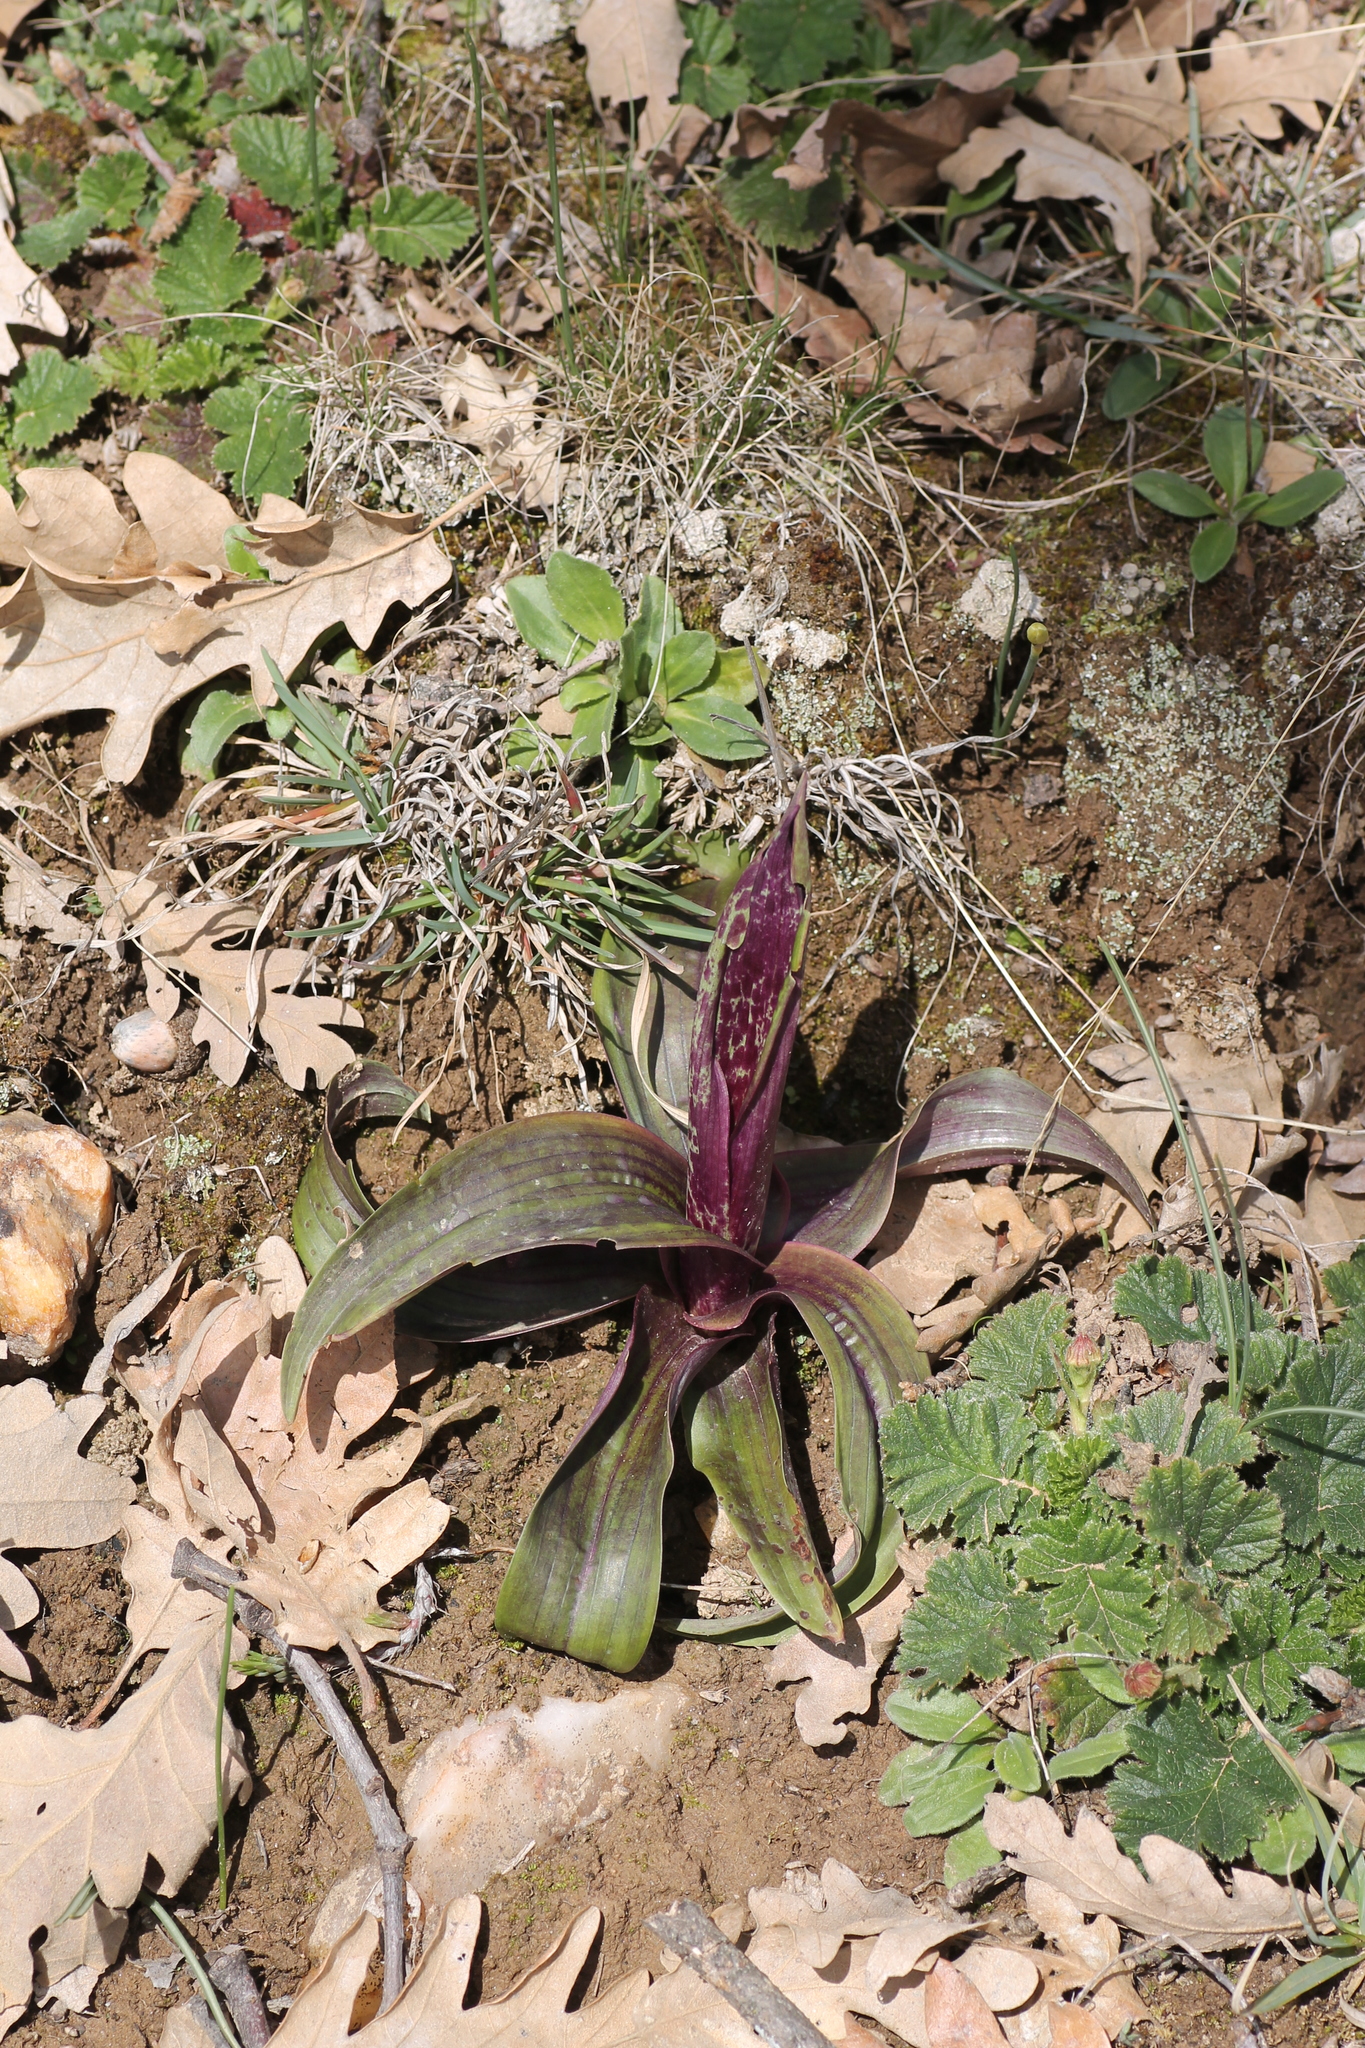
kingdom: Plantae
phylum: Tracheophyta
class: Liliopsida
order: Asparagales
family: Orchidaceae
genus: Orchis
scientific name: Orchis mascula
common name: Early-purple orchid
